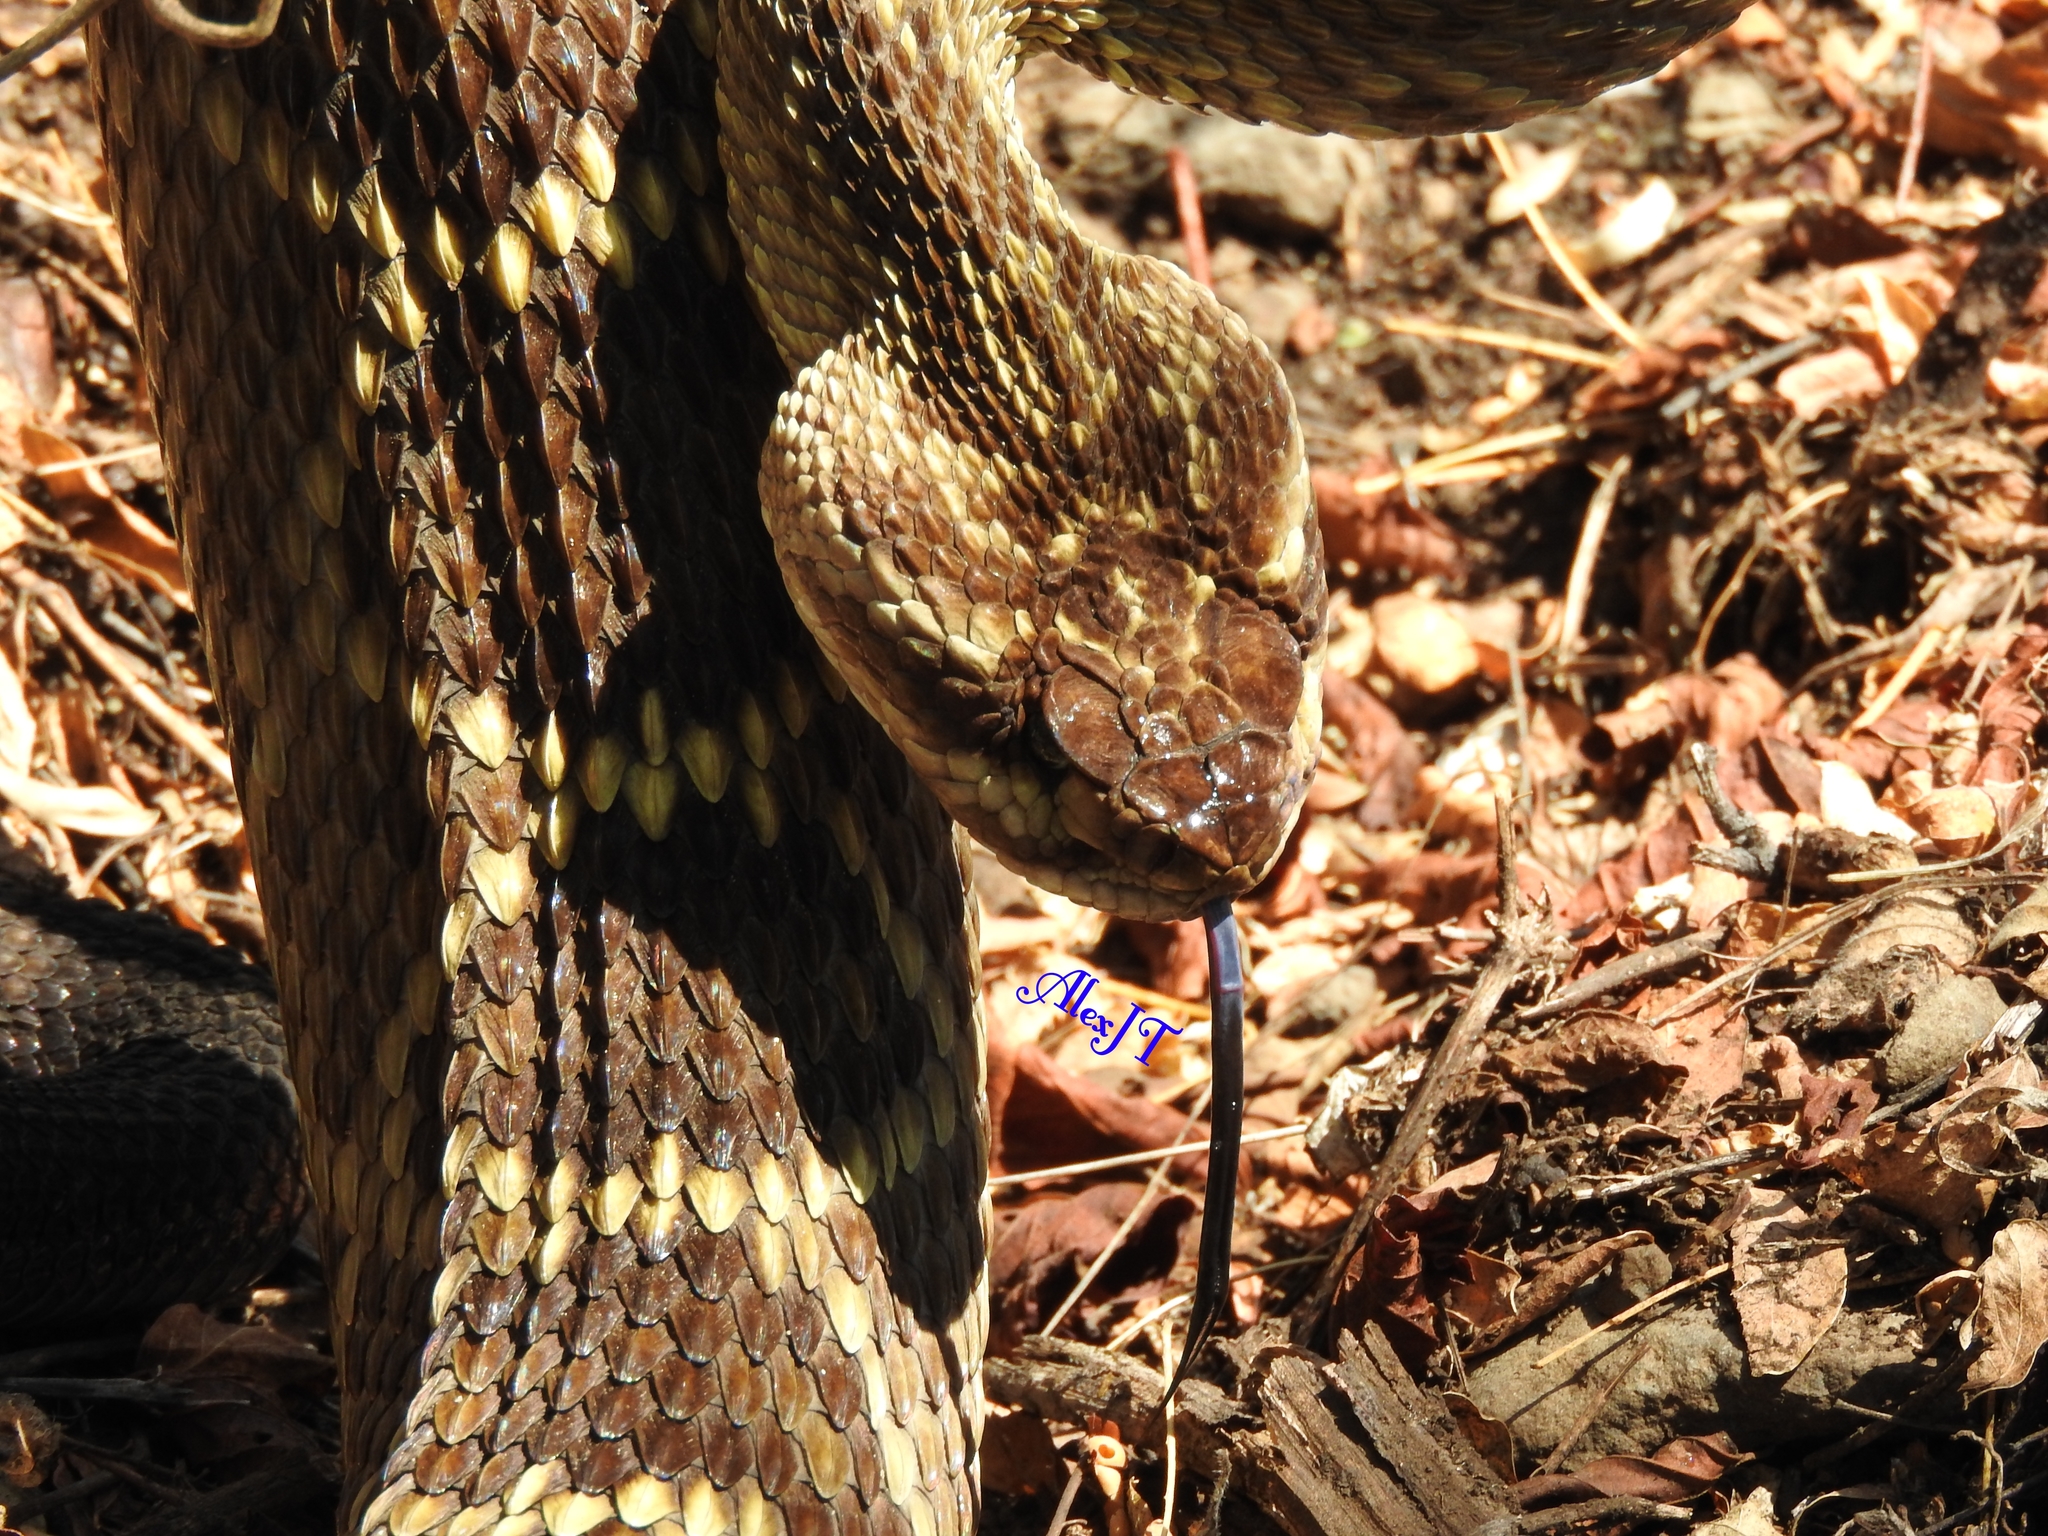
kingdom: Animalia
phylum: Chordata
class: Squamata
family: Viperidae
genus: Crotalus
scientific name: Crotalus molossus
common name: Black tailed rattlesnake
